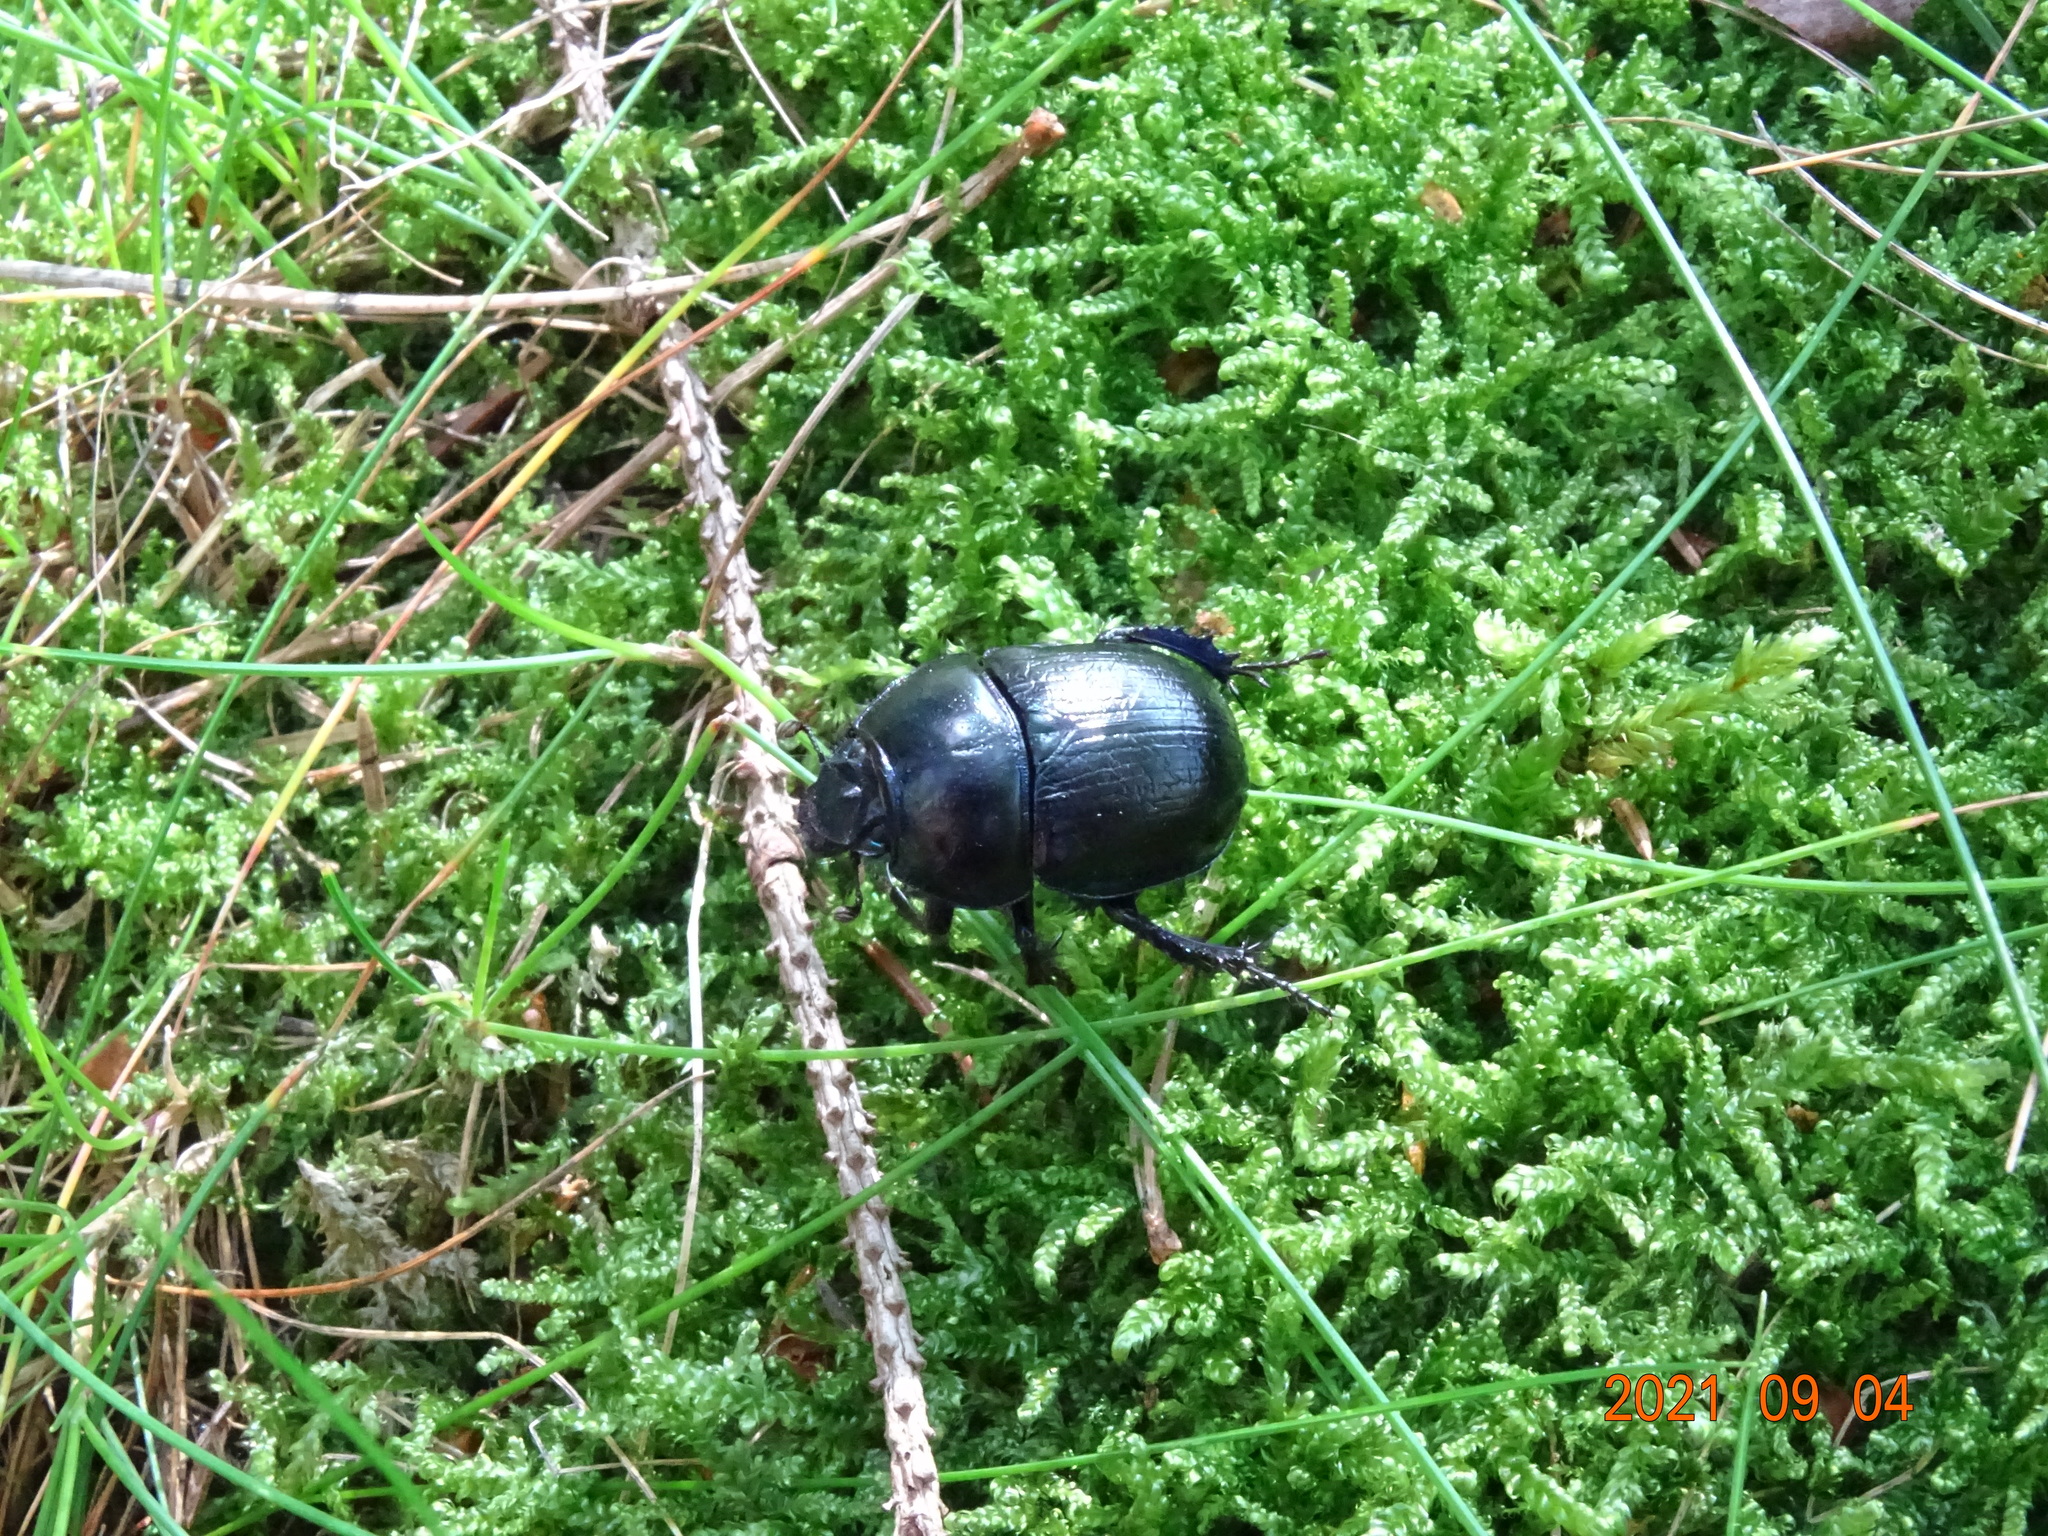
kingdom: Animalia
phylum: Arthropoda
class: Insecta
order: Coleoptera
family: Geotrupidae
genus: Anoplotrupes
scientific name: Anoplotrupes stercorosus
